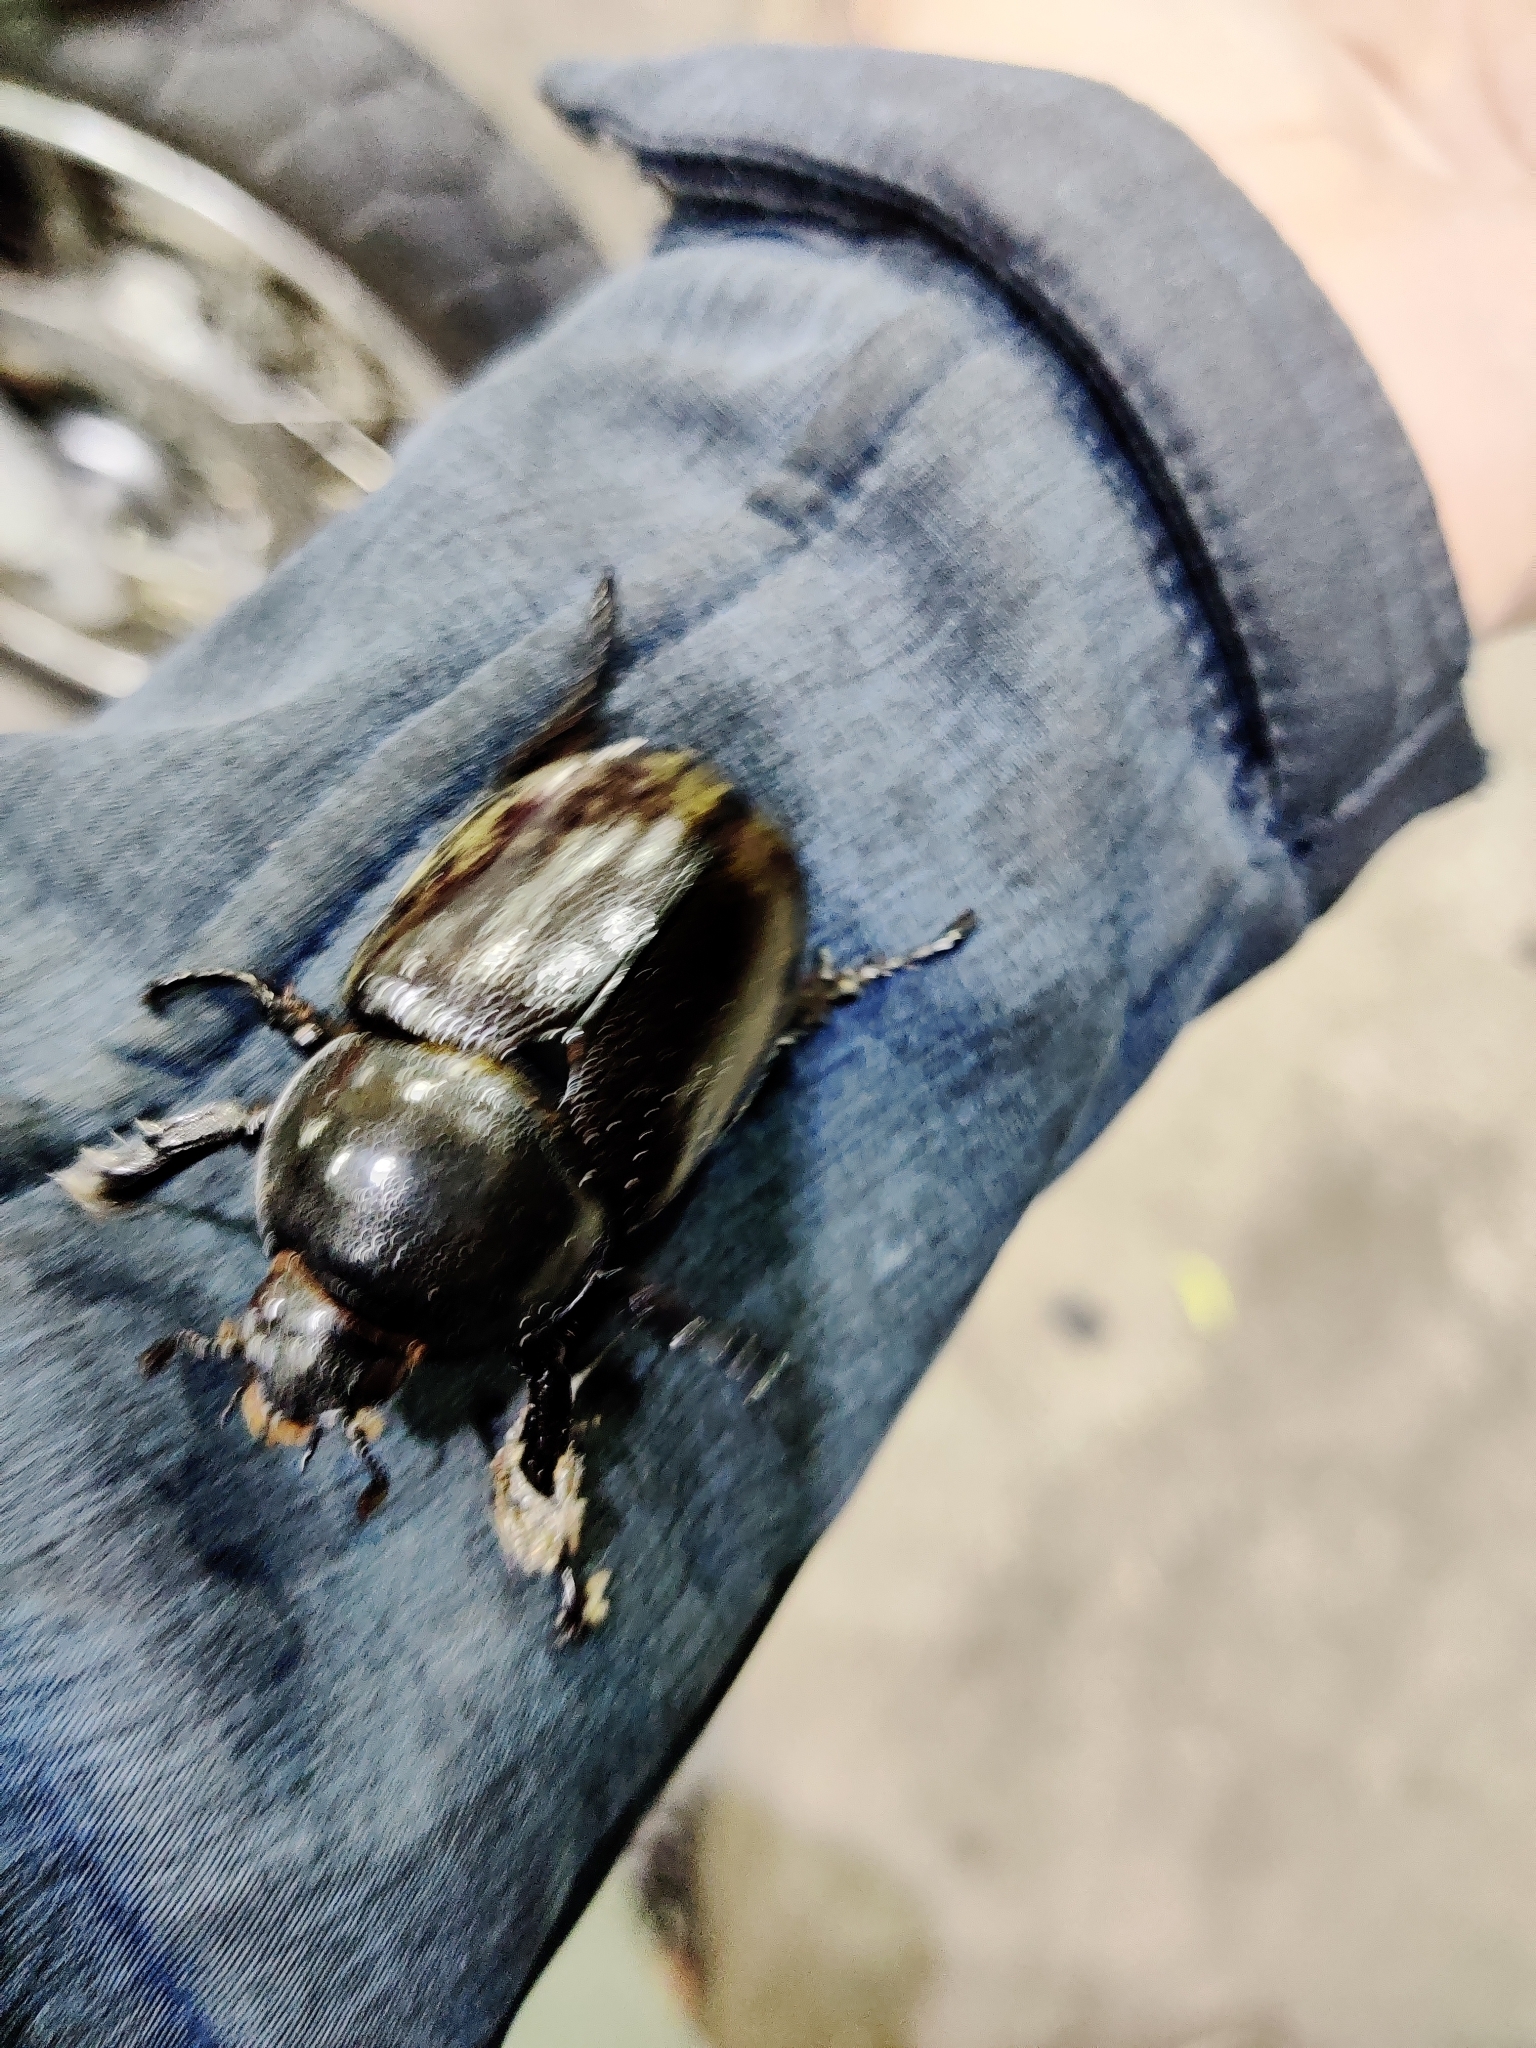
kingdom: Animalia
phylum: Arthropoda
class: Insecta
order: Coleoptera
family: Scarabaeidae
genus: Dynastes
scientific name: Dynastes tityus
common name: Eastern hercules beetle
